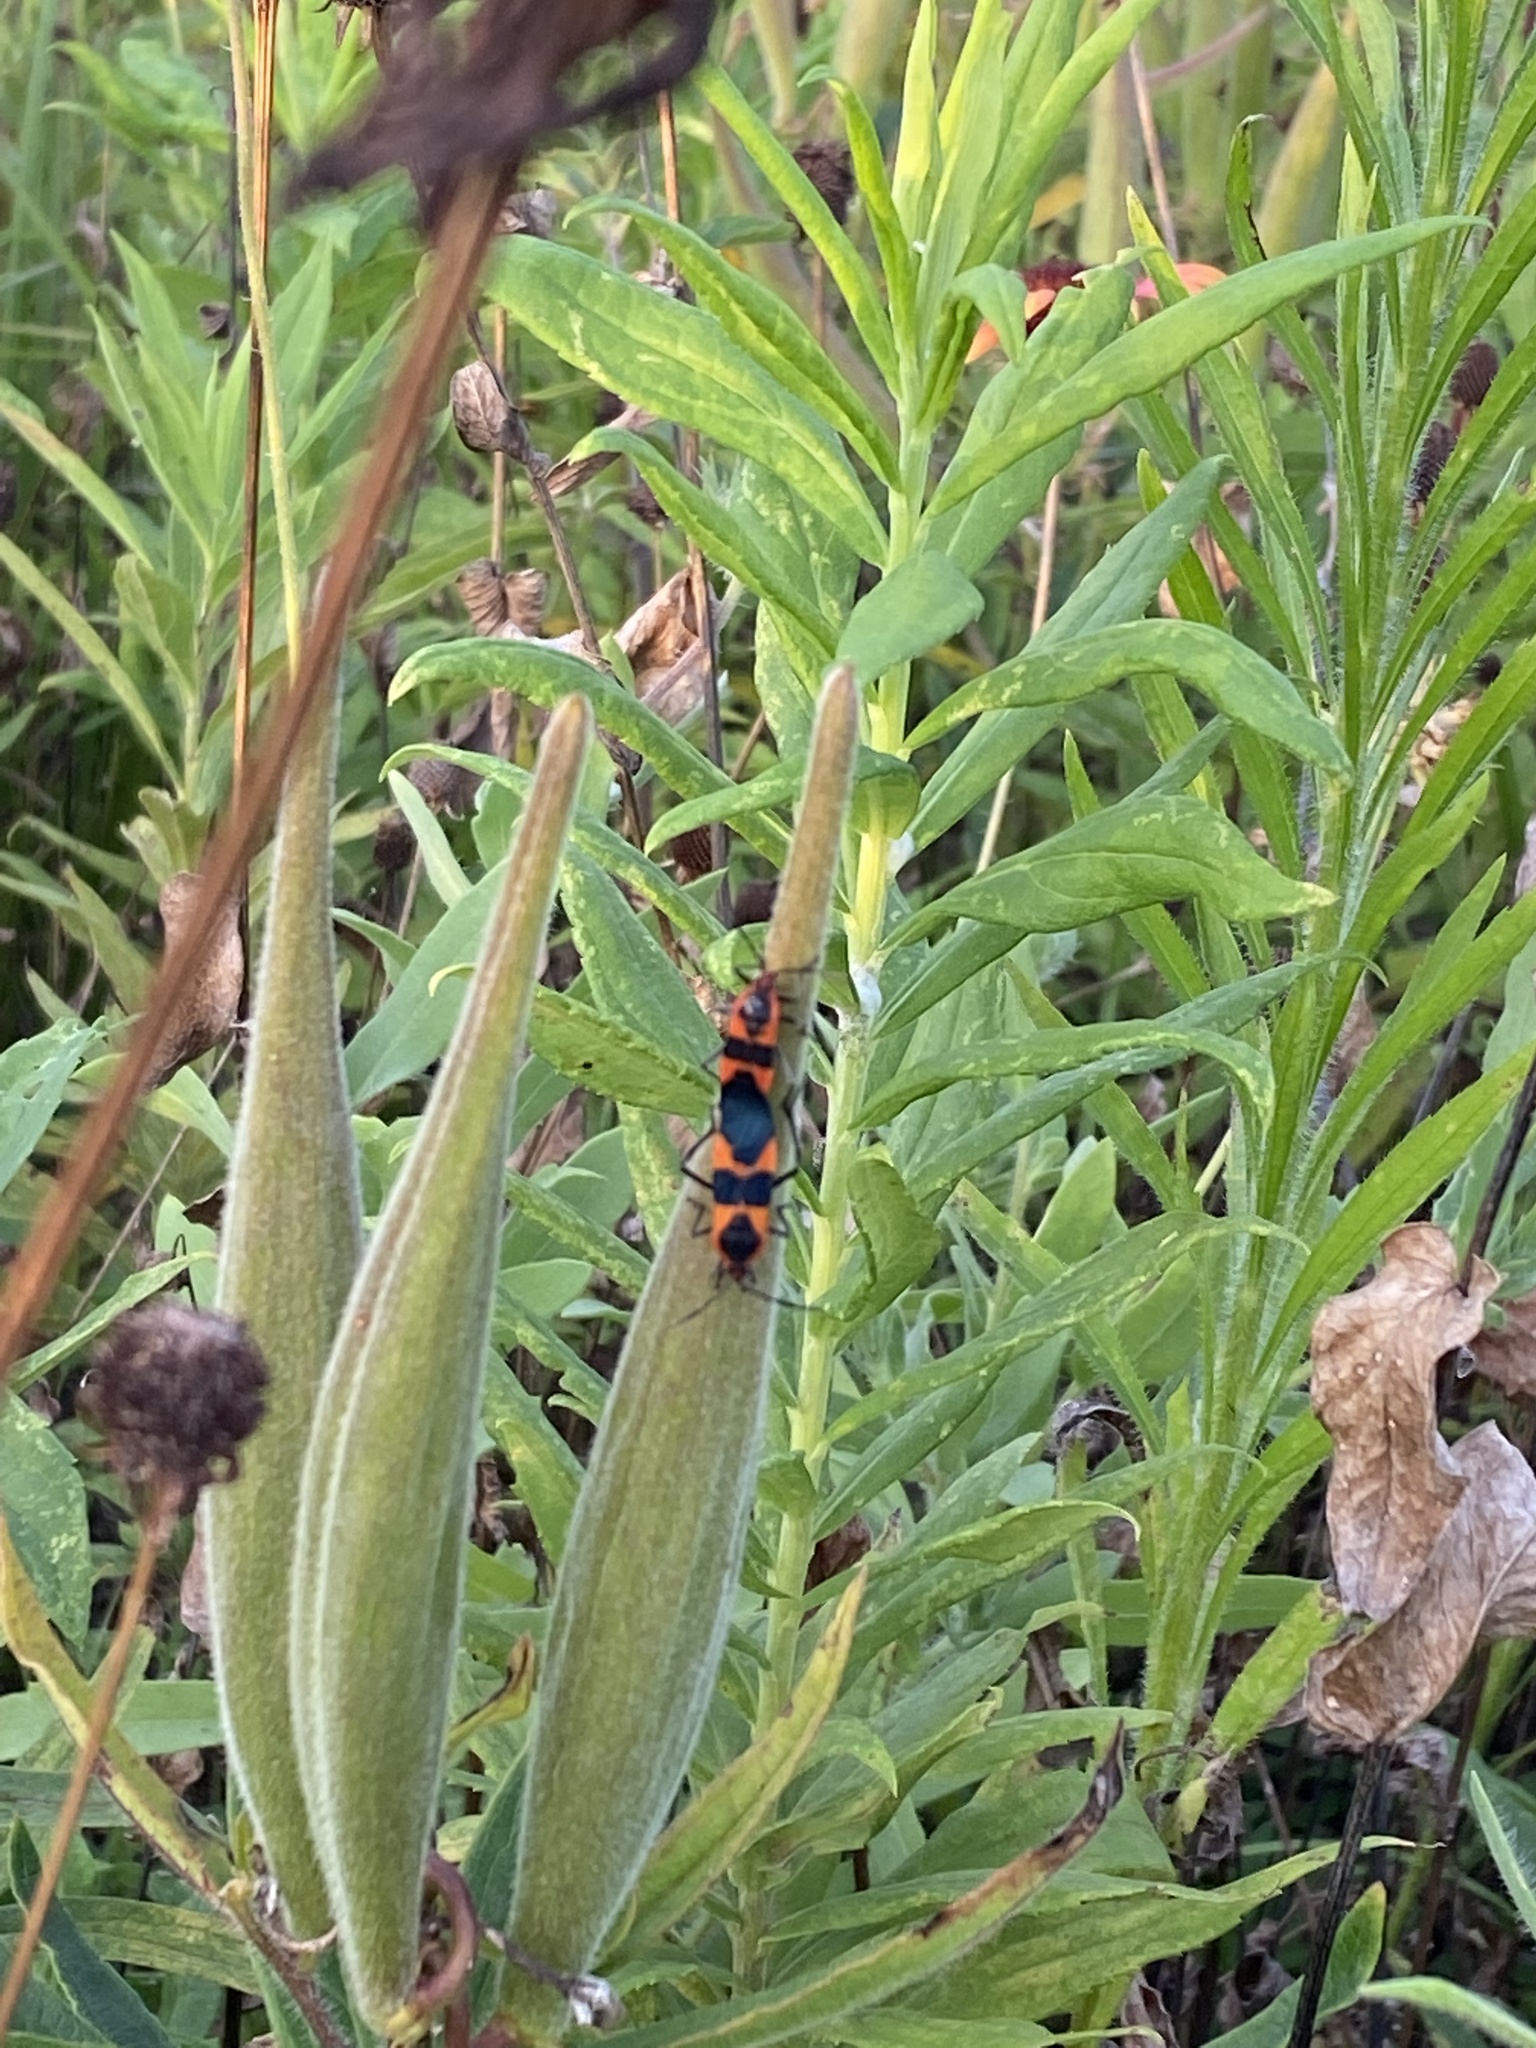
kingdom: Animalia
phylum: Arthropoda
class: Insecta
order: Hemiptera
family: Lygaeidae
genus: Oncopeltus
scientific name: Oncopeltus fasciatus
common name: Large milkweed bug
